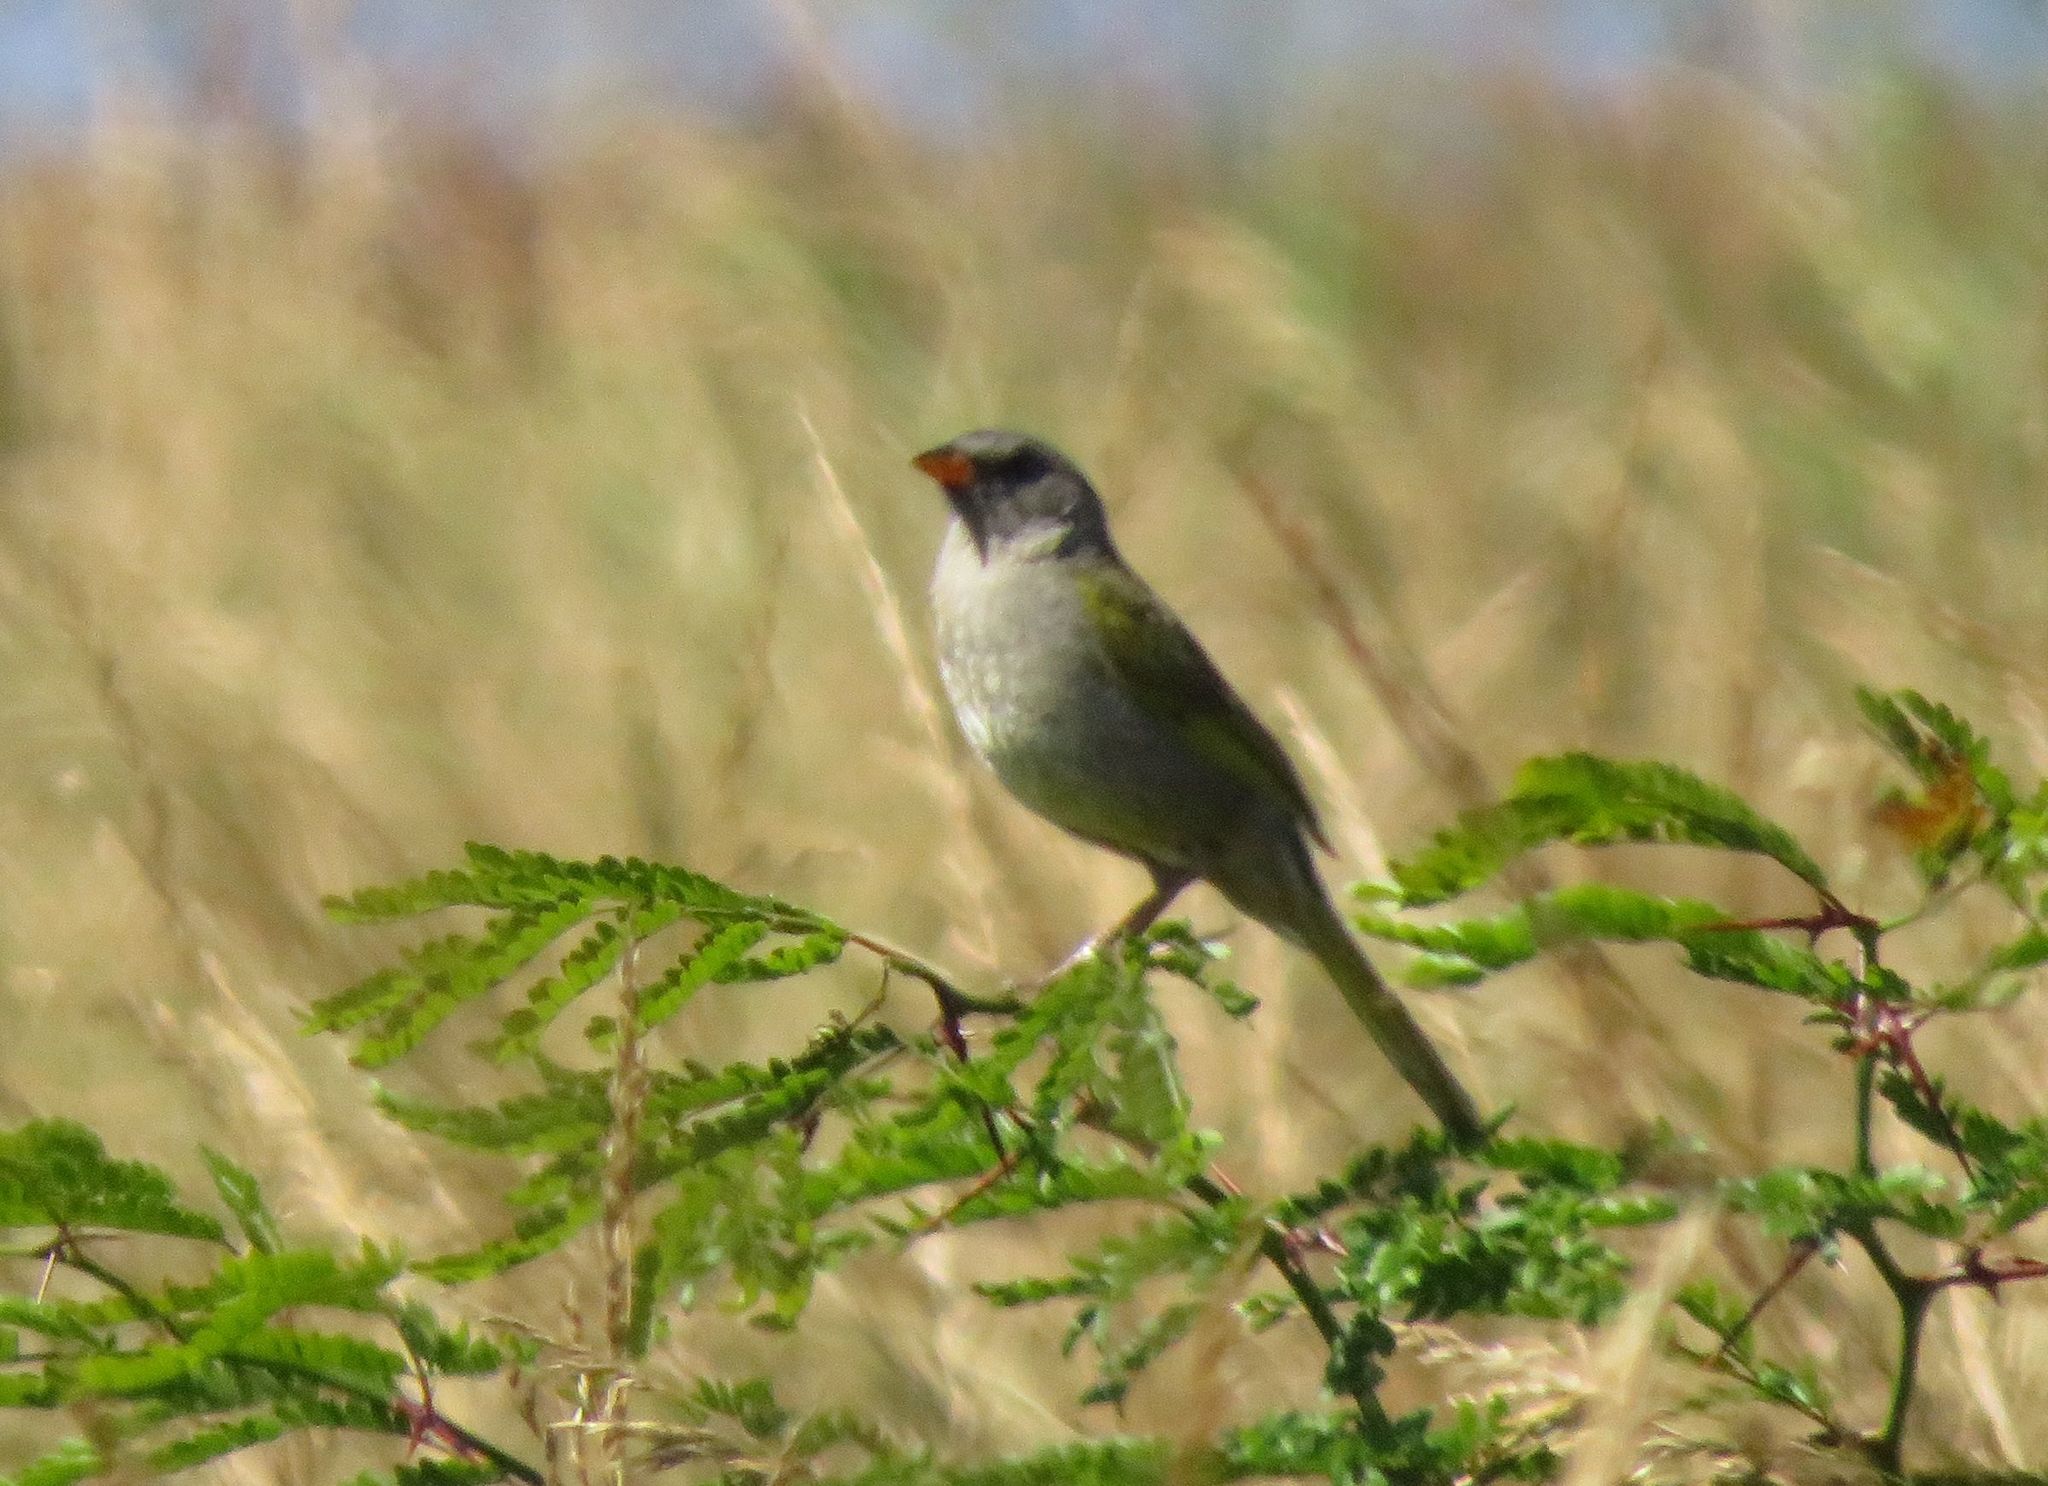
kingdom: Animalia
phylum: Chordata
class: Aves
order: Passeriformes
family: Thraupidae
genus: Embernagra
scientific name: Embernagra platensis
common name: Pampa finch
